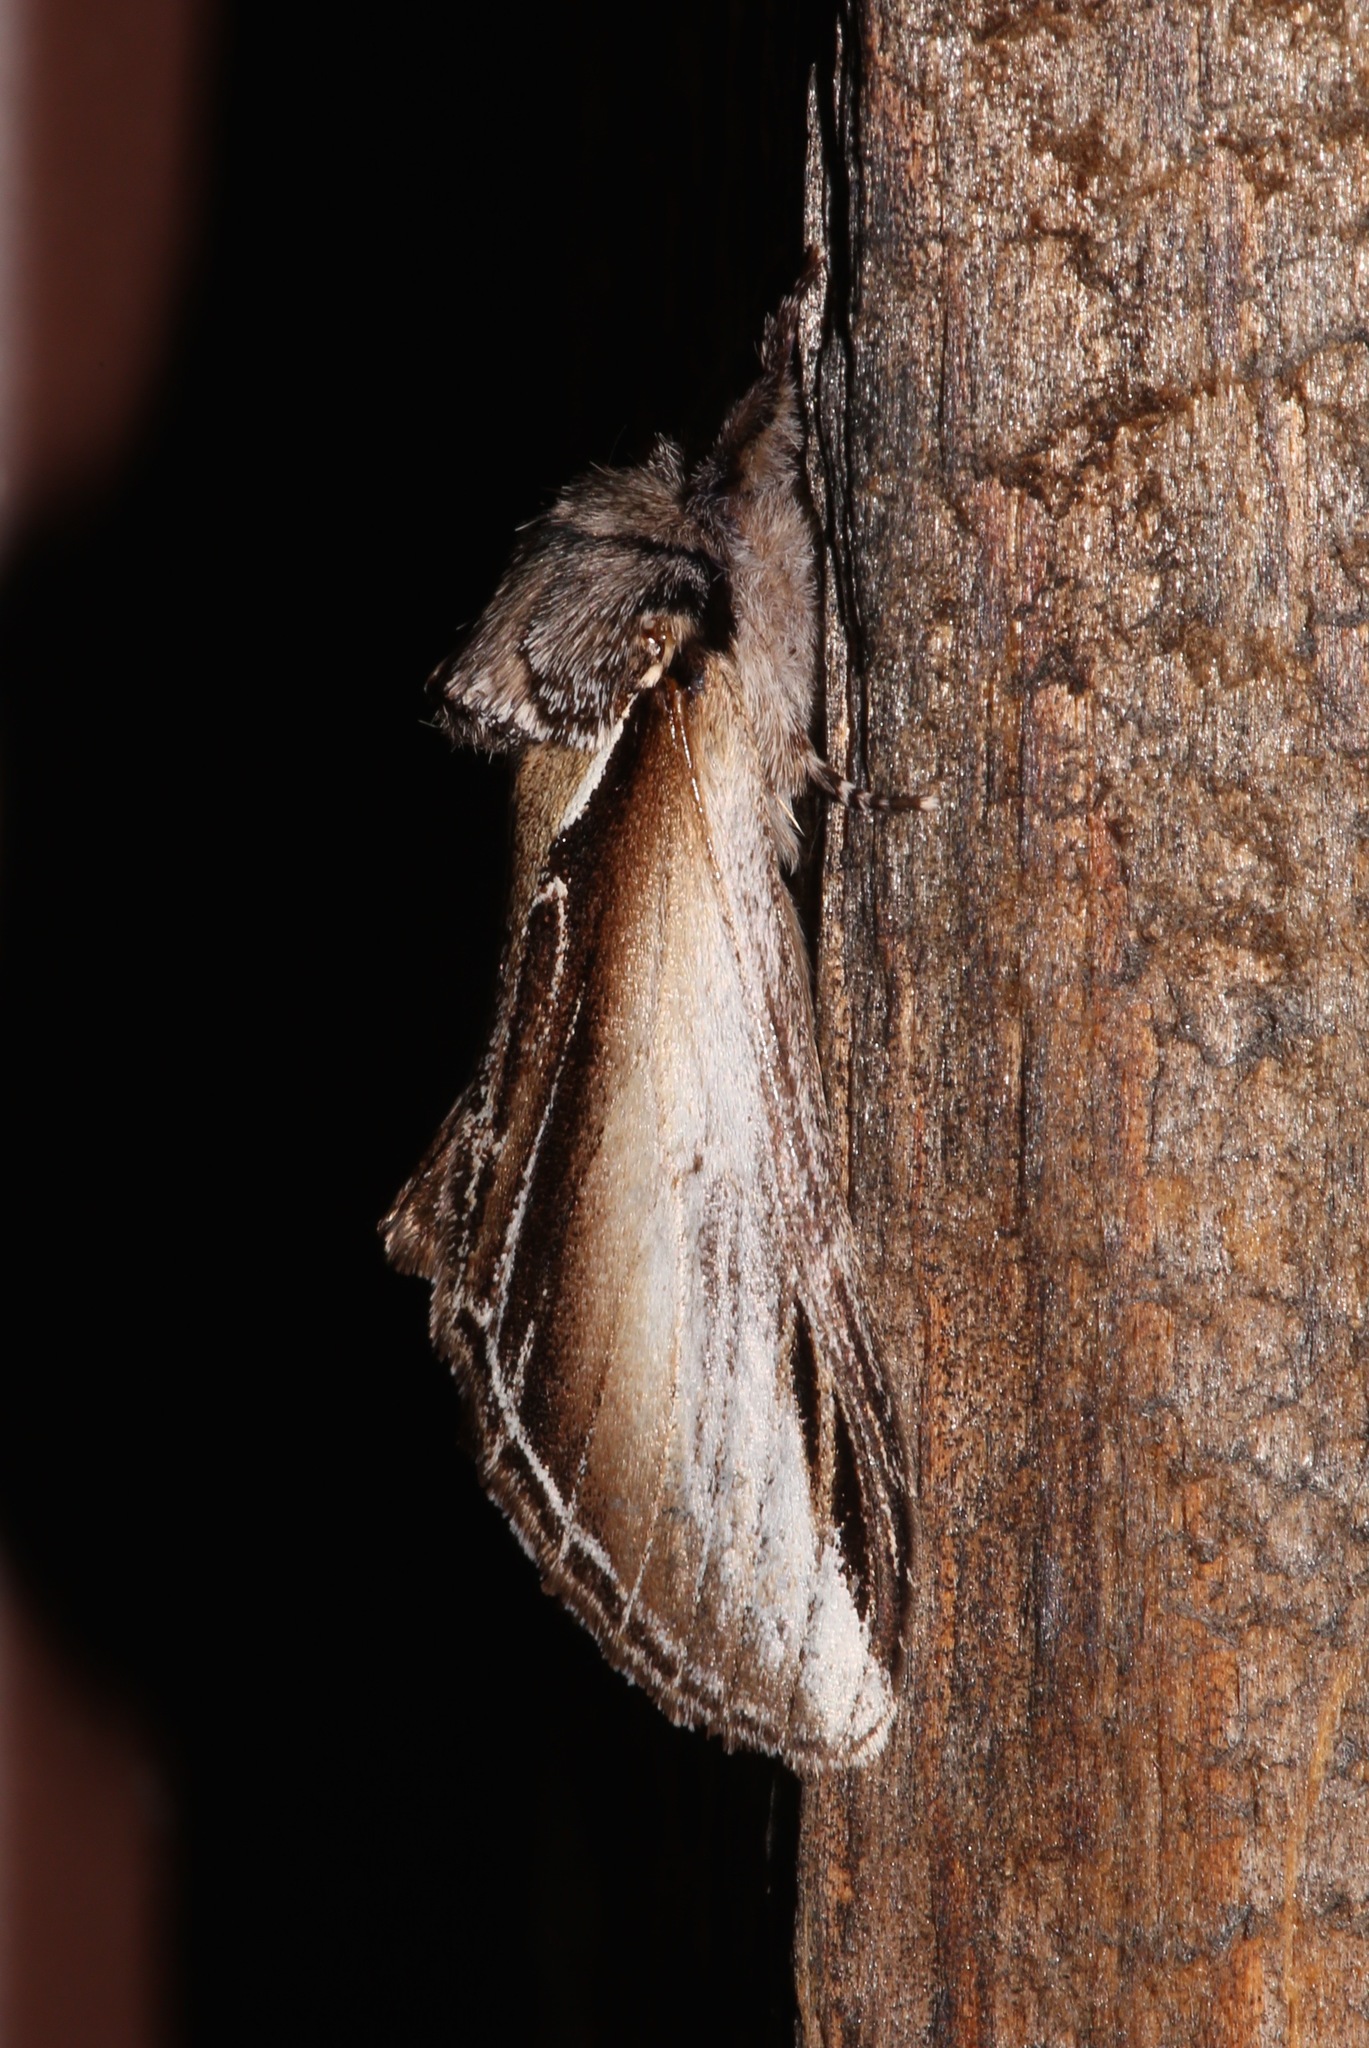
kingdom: Animalia
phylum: Arthropoda
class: Insecta
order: Lepidoptera
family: Notodontidae
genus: Pheosia
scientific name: Pheosia rimosa
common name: Black-rimmed prominent
